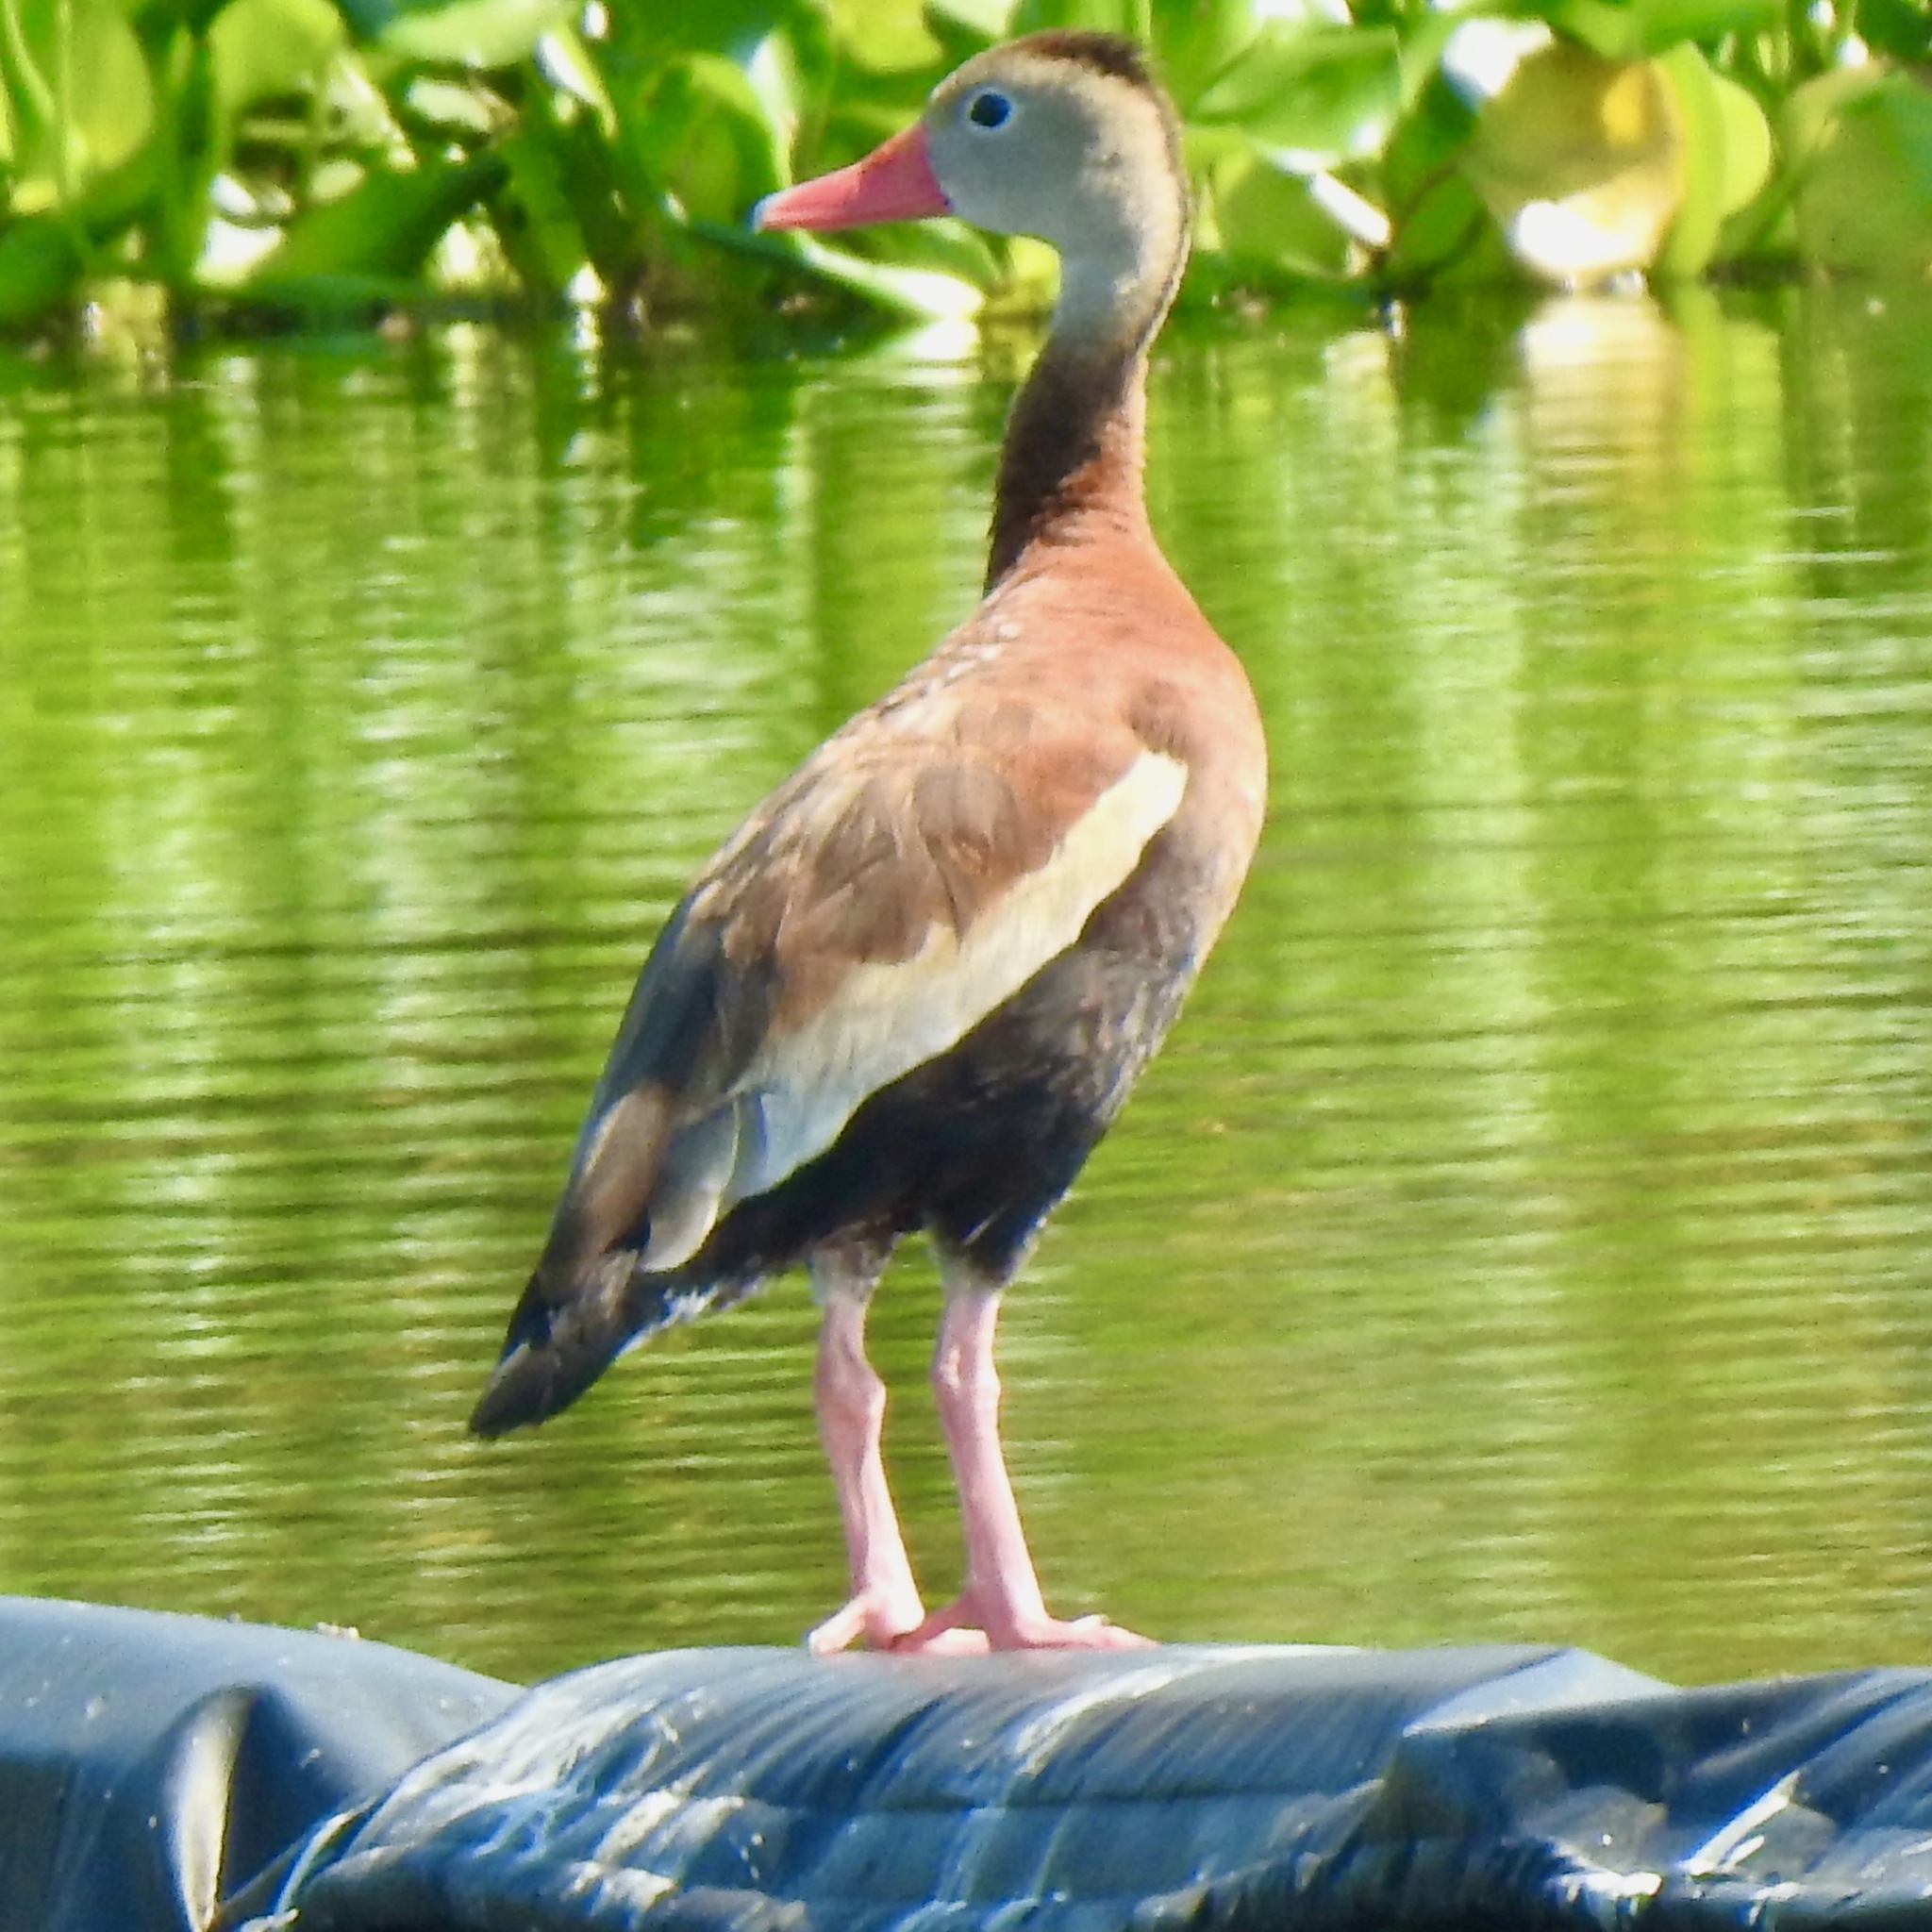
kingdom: Animalia
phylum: Chordata
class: Aves
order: Anseriformes
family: Anatidae
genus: Dendrocygna
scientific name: Dendrocygna autumnalis
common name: Black-bellied whistling duck
